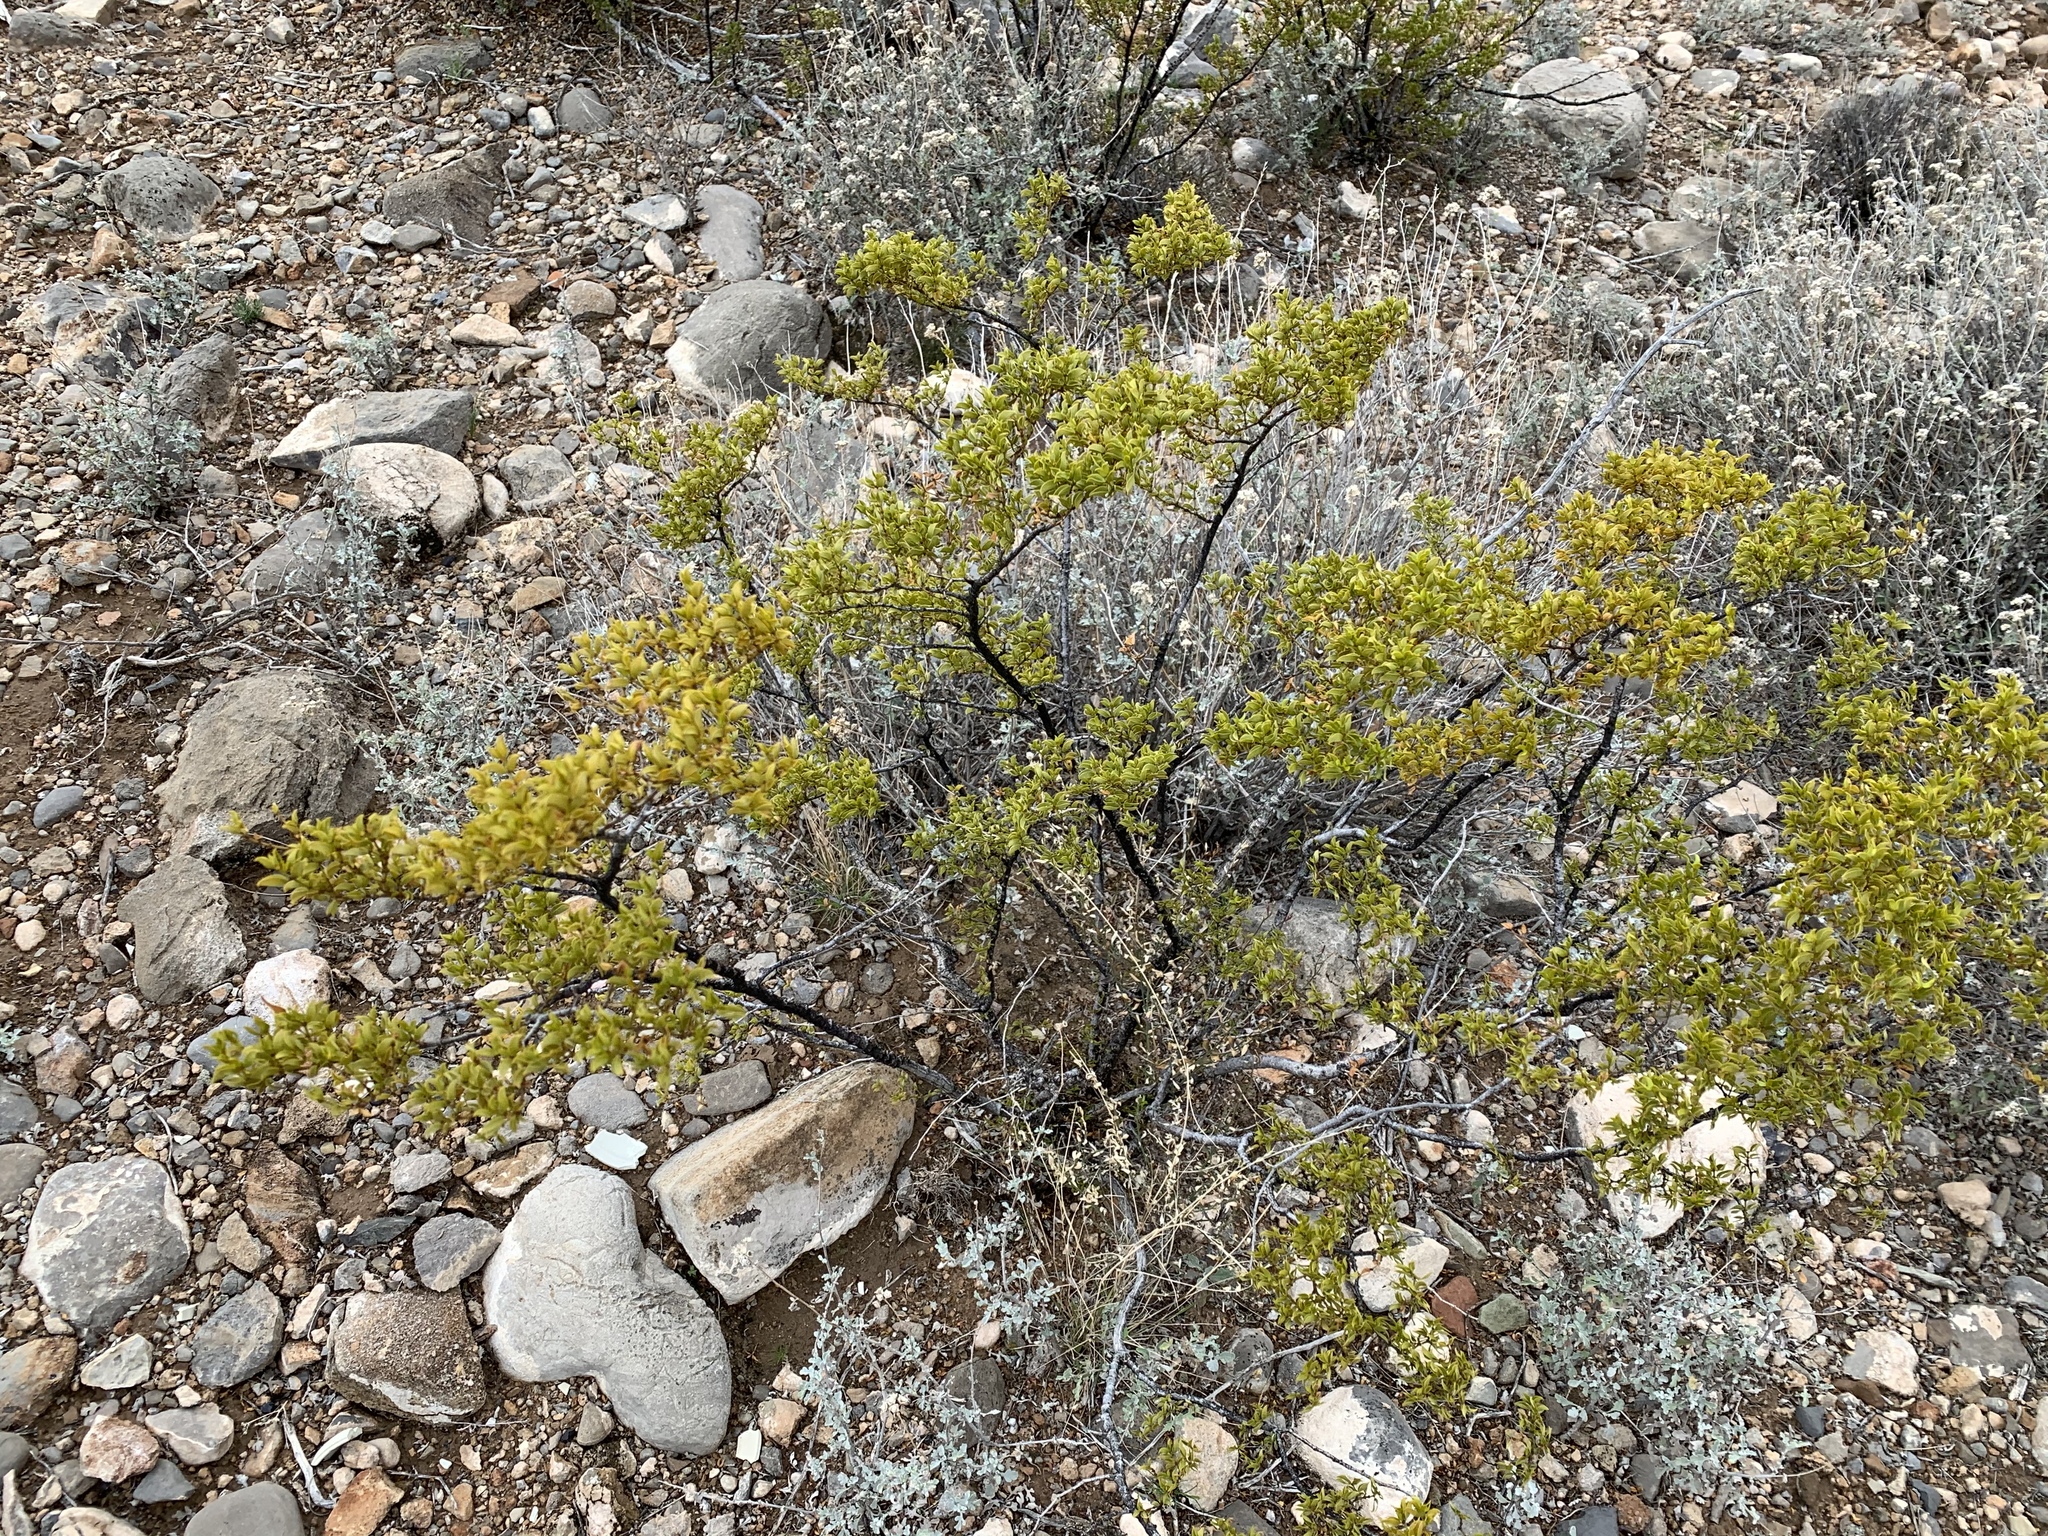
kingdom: Plantae
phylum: Tracheophyta
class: Magnoliopsida
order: Zygophyllales
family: Zygophyllaceae
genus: Larrea
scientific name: Larrea tridentata
